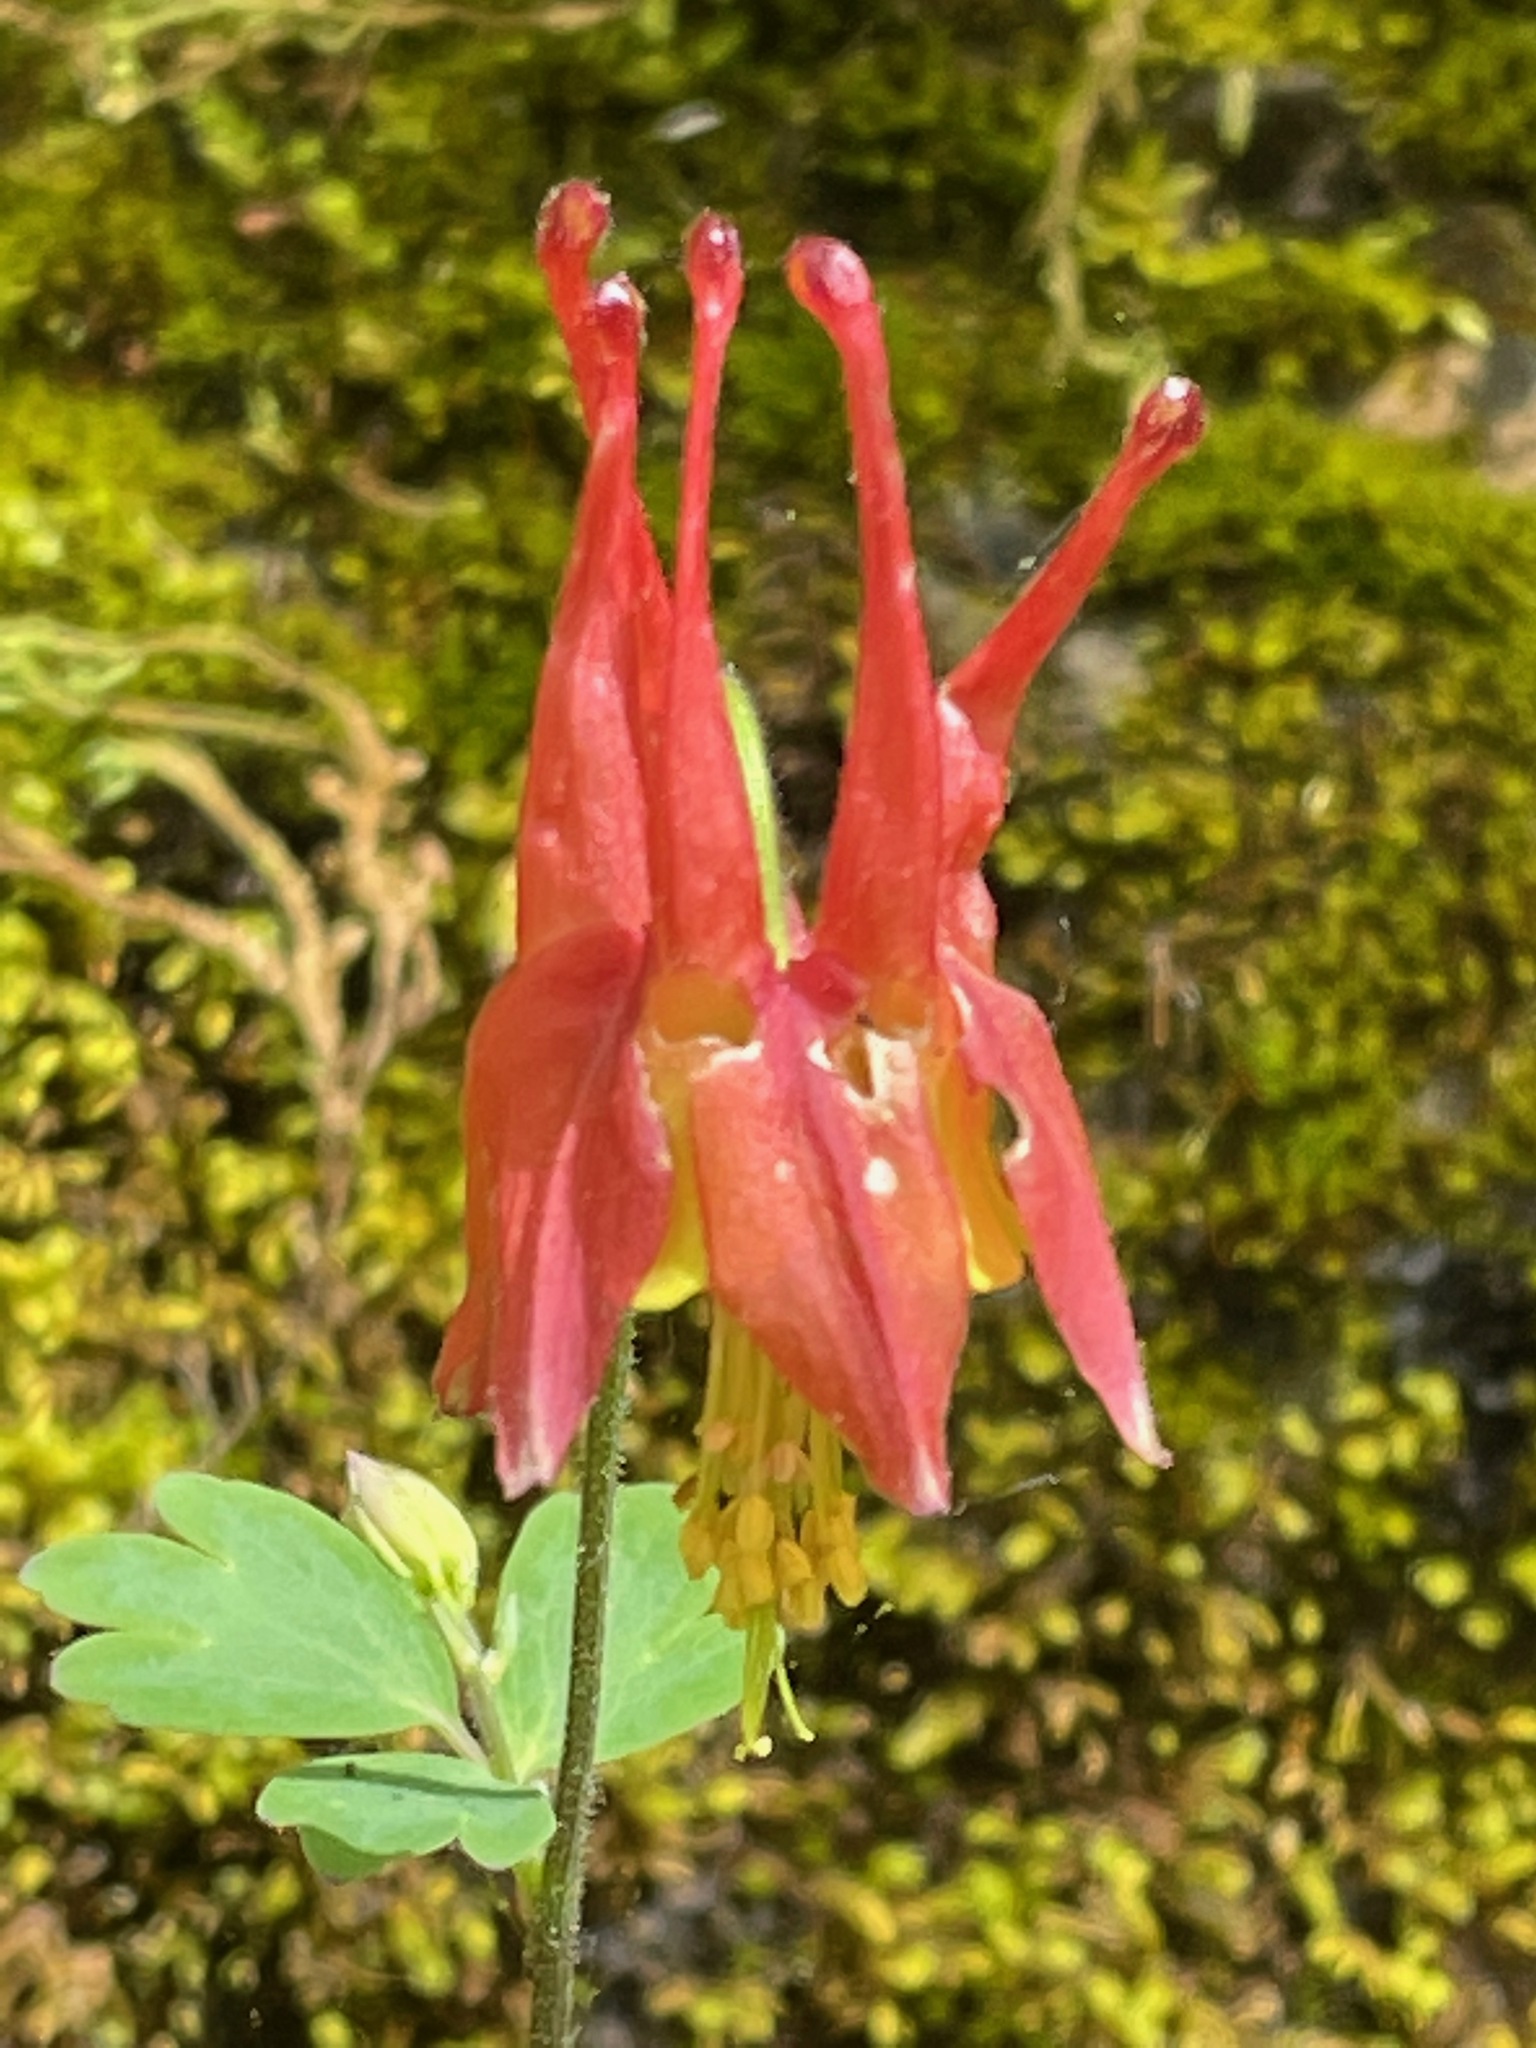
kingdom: Plantae
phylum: Tracheophyta
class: Magnoliopsida
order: Ranunculales
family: Ranunculaceae
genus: Aquilegia
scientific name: Aquilegia canadensis
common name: American columbine
